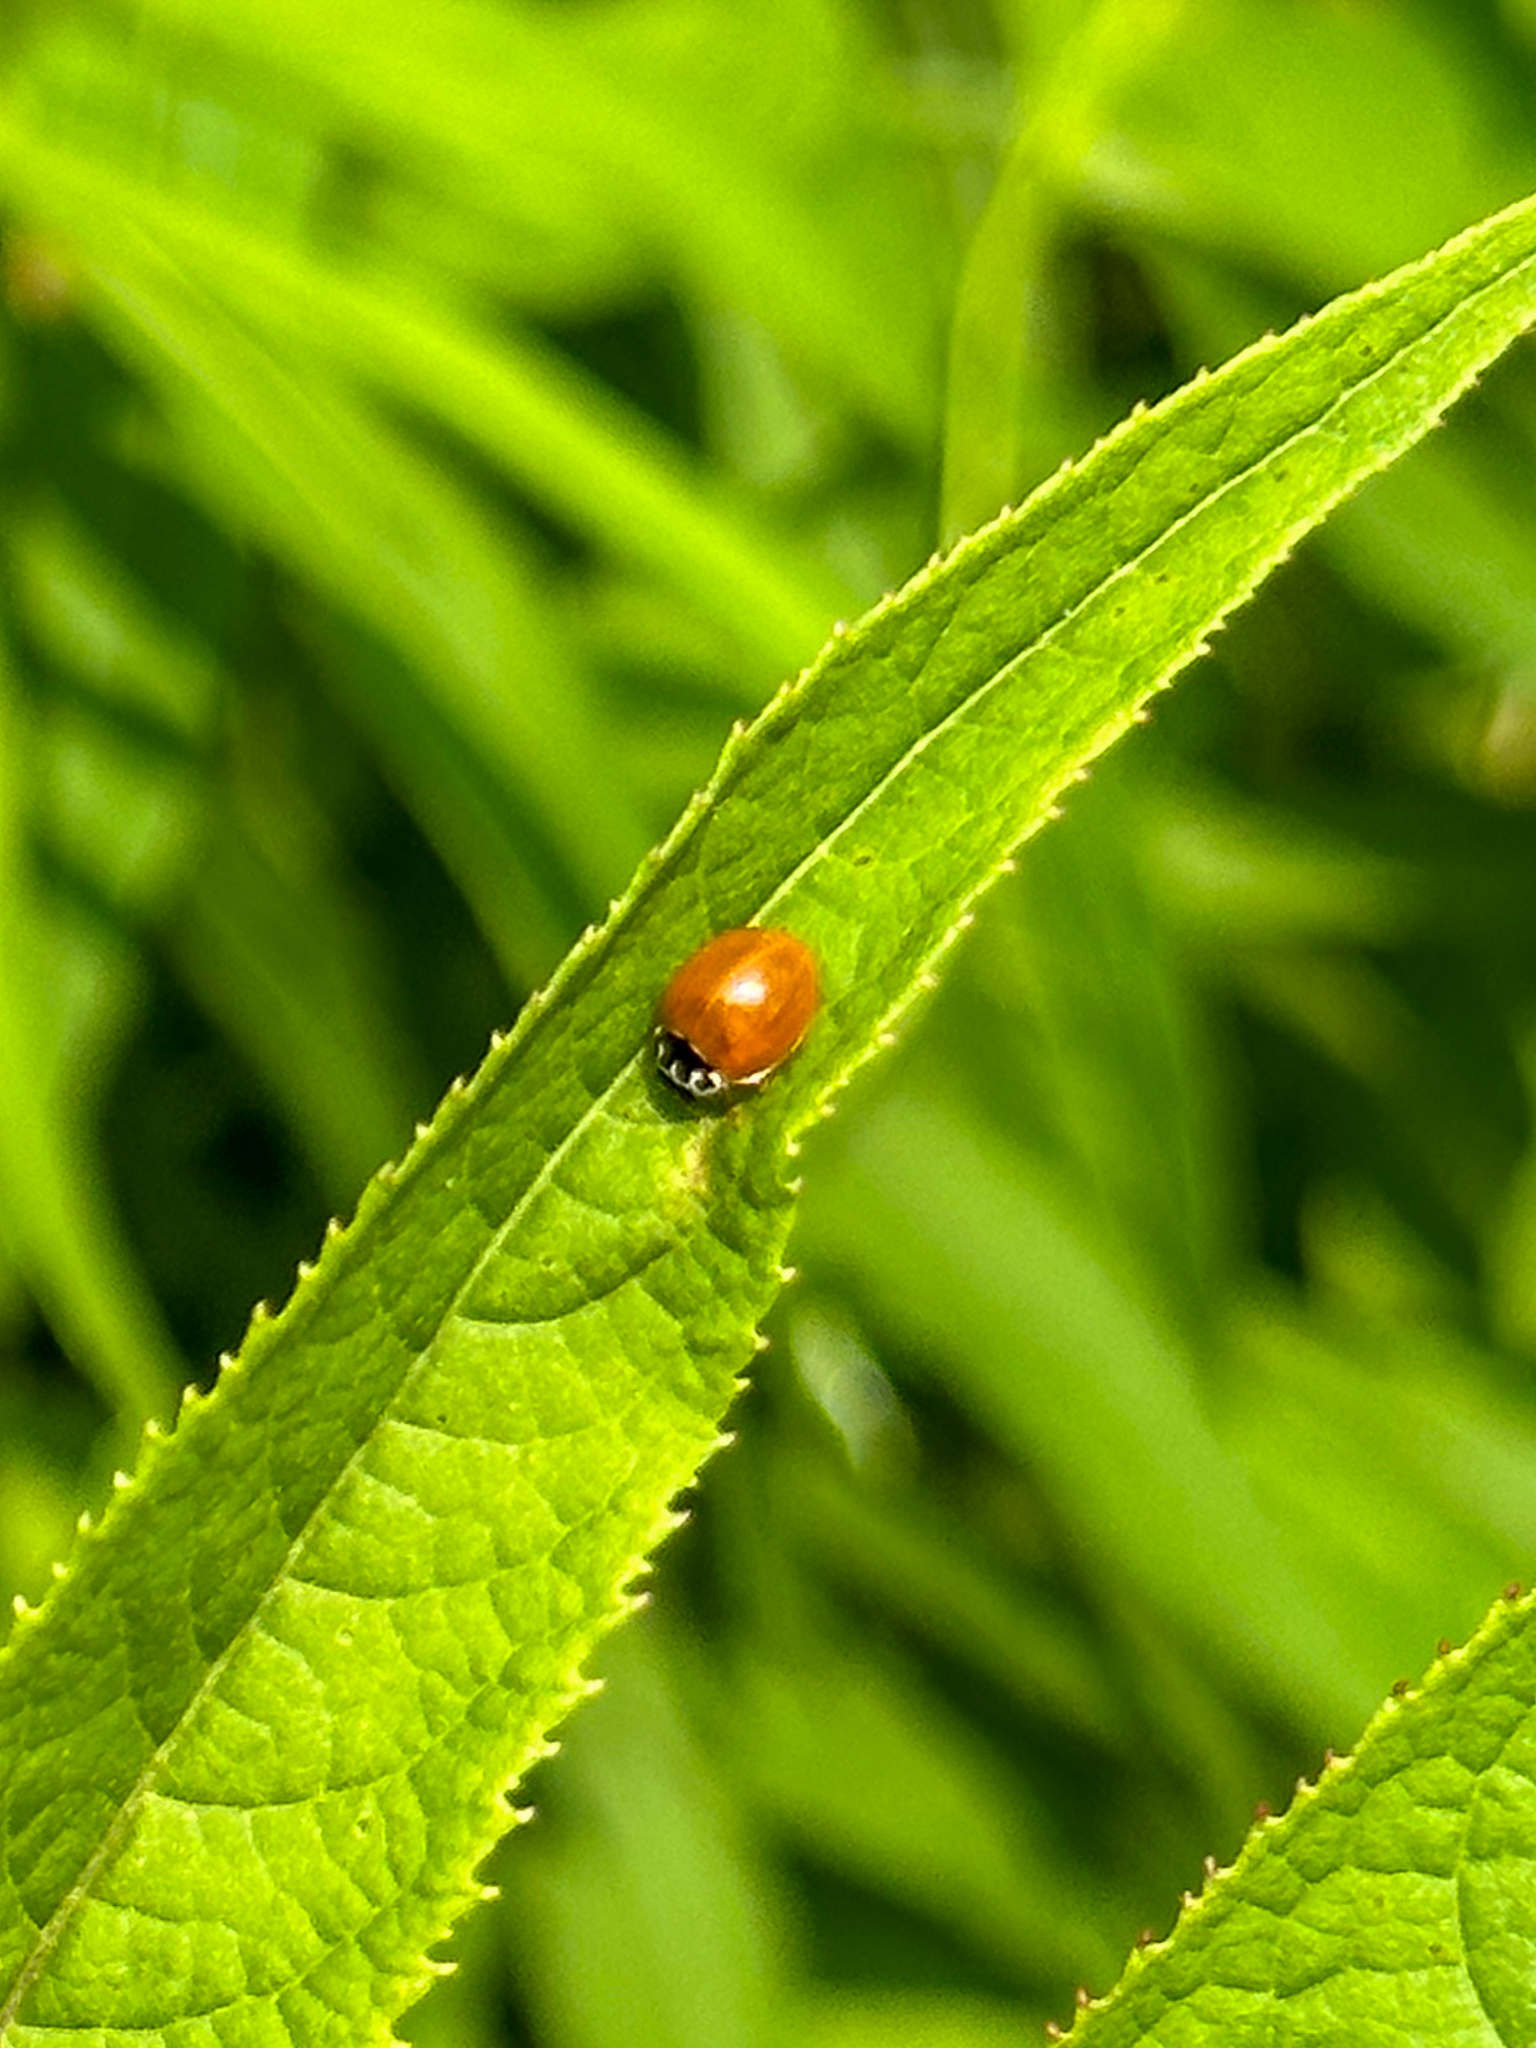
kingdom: Animalia
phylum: Arthropoda
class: Insecta
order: Coleoptera
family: Coccinellidae
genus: Cycloneda
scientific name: Cycloneda munda
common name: Polished lady beetle
